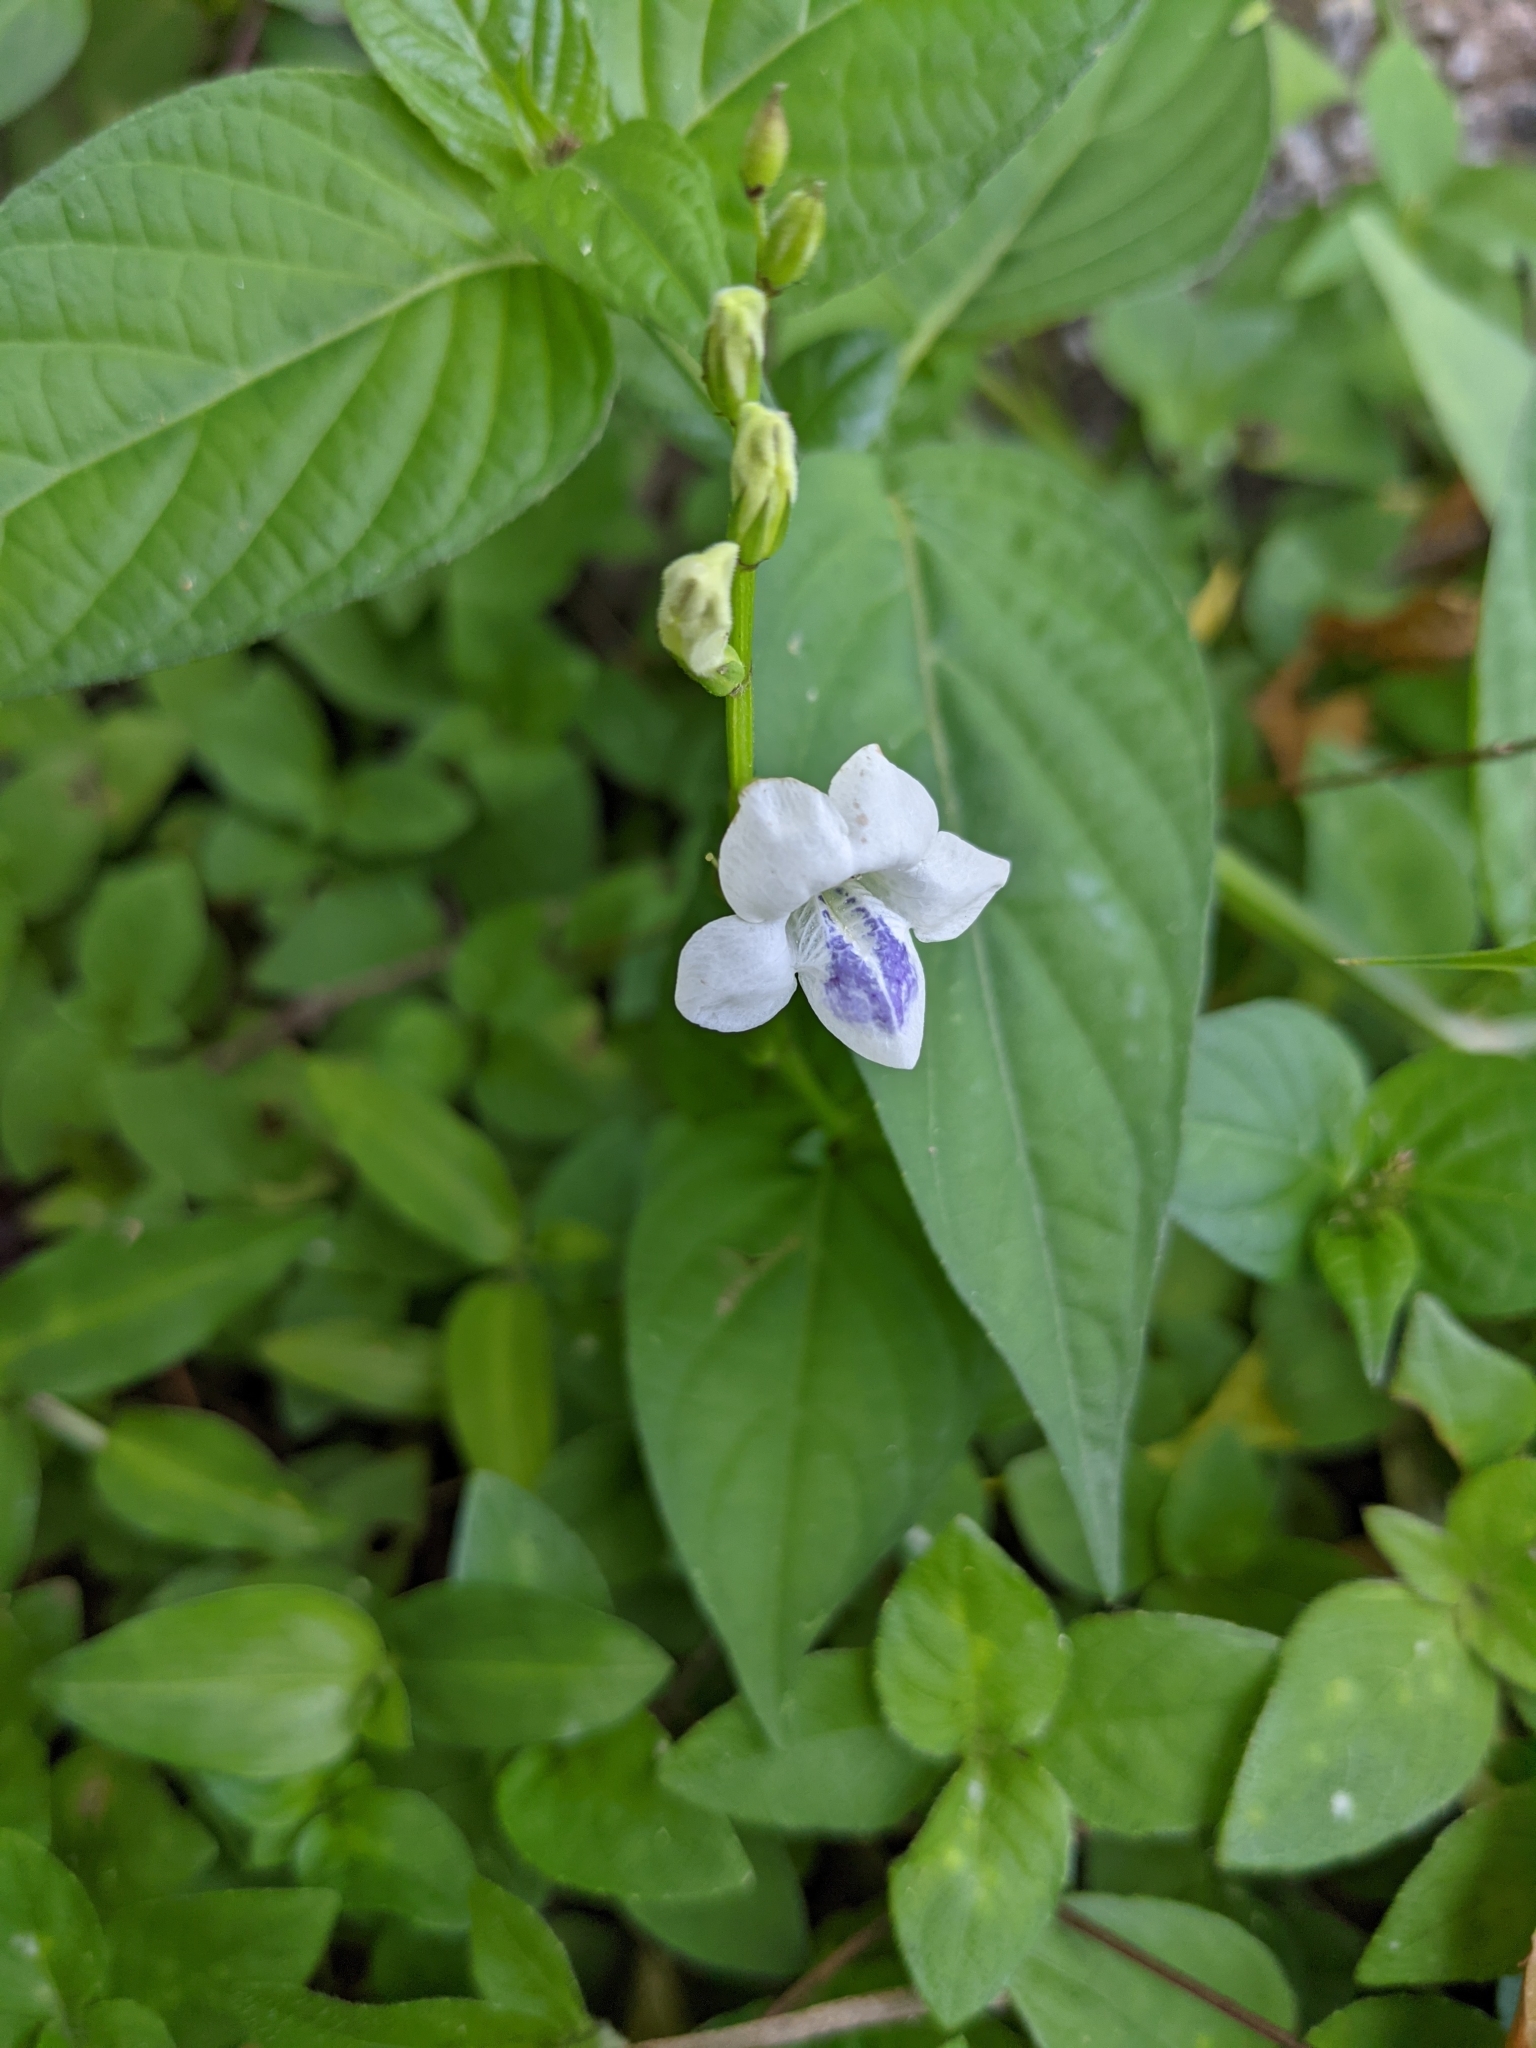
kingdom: Plantae
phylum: Tracheophyta
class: Magnoliopsida
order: Lamiales
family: Acanthaceae
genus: Asystasia
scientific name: Asystasia intrusa
